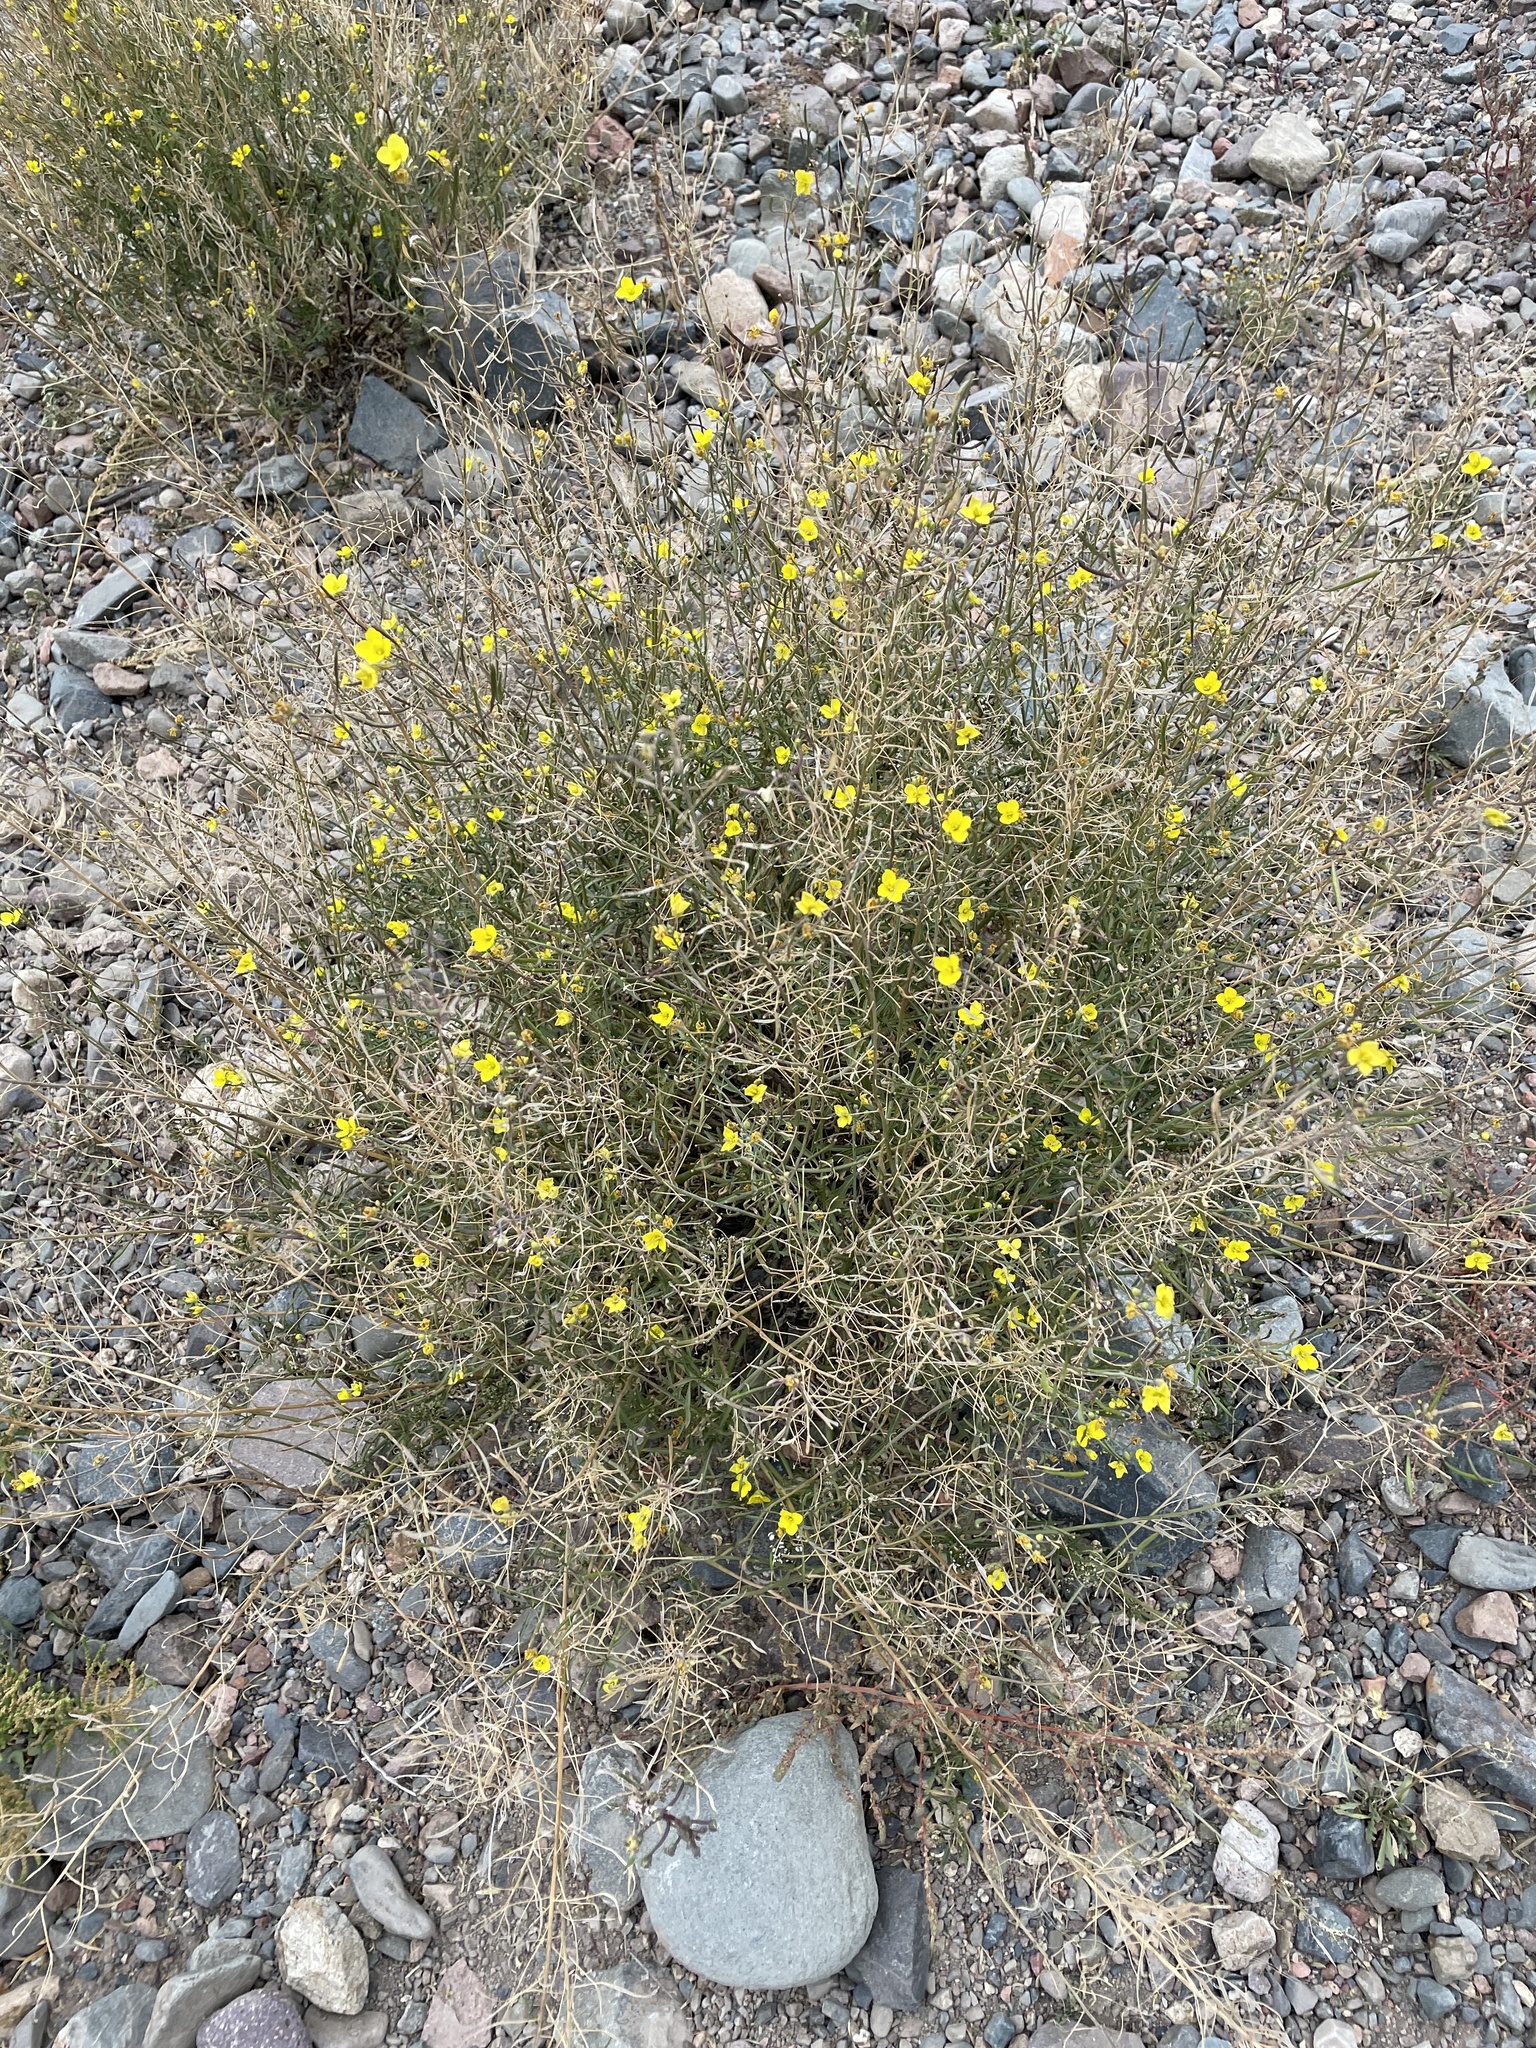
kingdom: Plantae
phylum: Tracheophyta
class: Magnoliopsida
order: Brassicales
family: Brassicaceae
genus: Diplotaxis
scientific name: Diplotaxis tenuifolia
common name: Perennial wall-rocket
